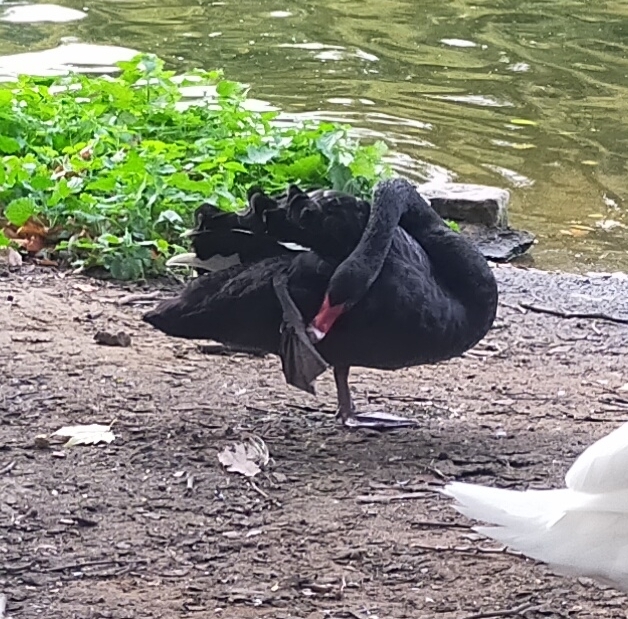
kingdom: Animalia
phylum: Chordata
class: Aves
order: Anseriformes
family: Anatidae
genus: Cygnus
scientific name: Cygnus atratus
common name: Black swan
